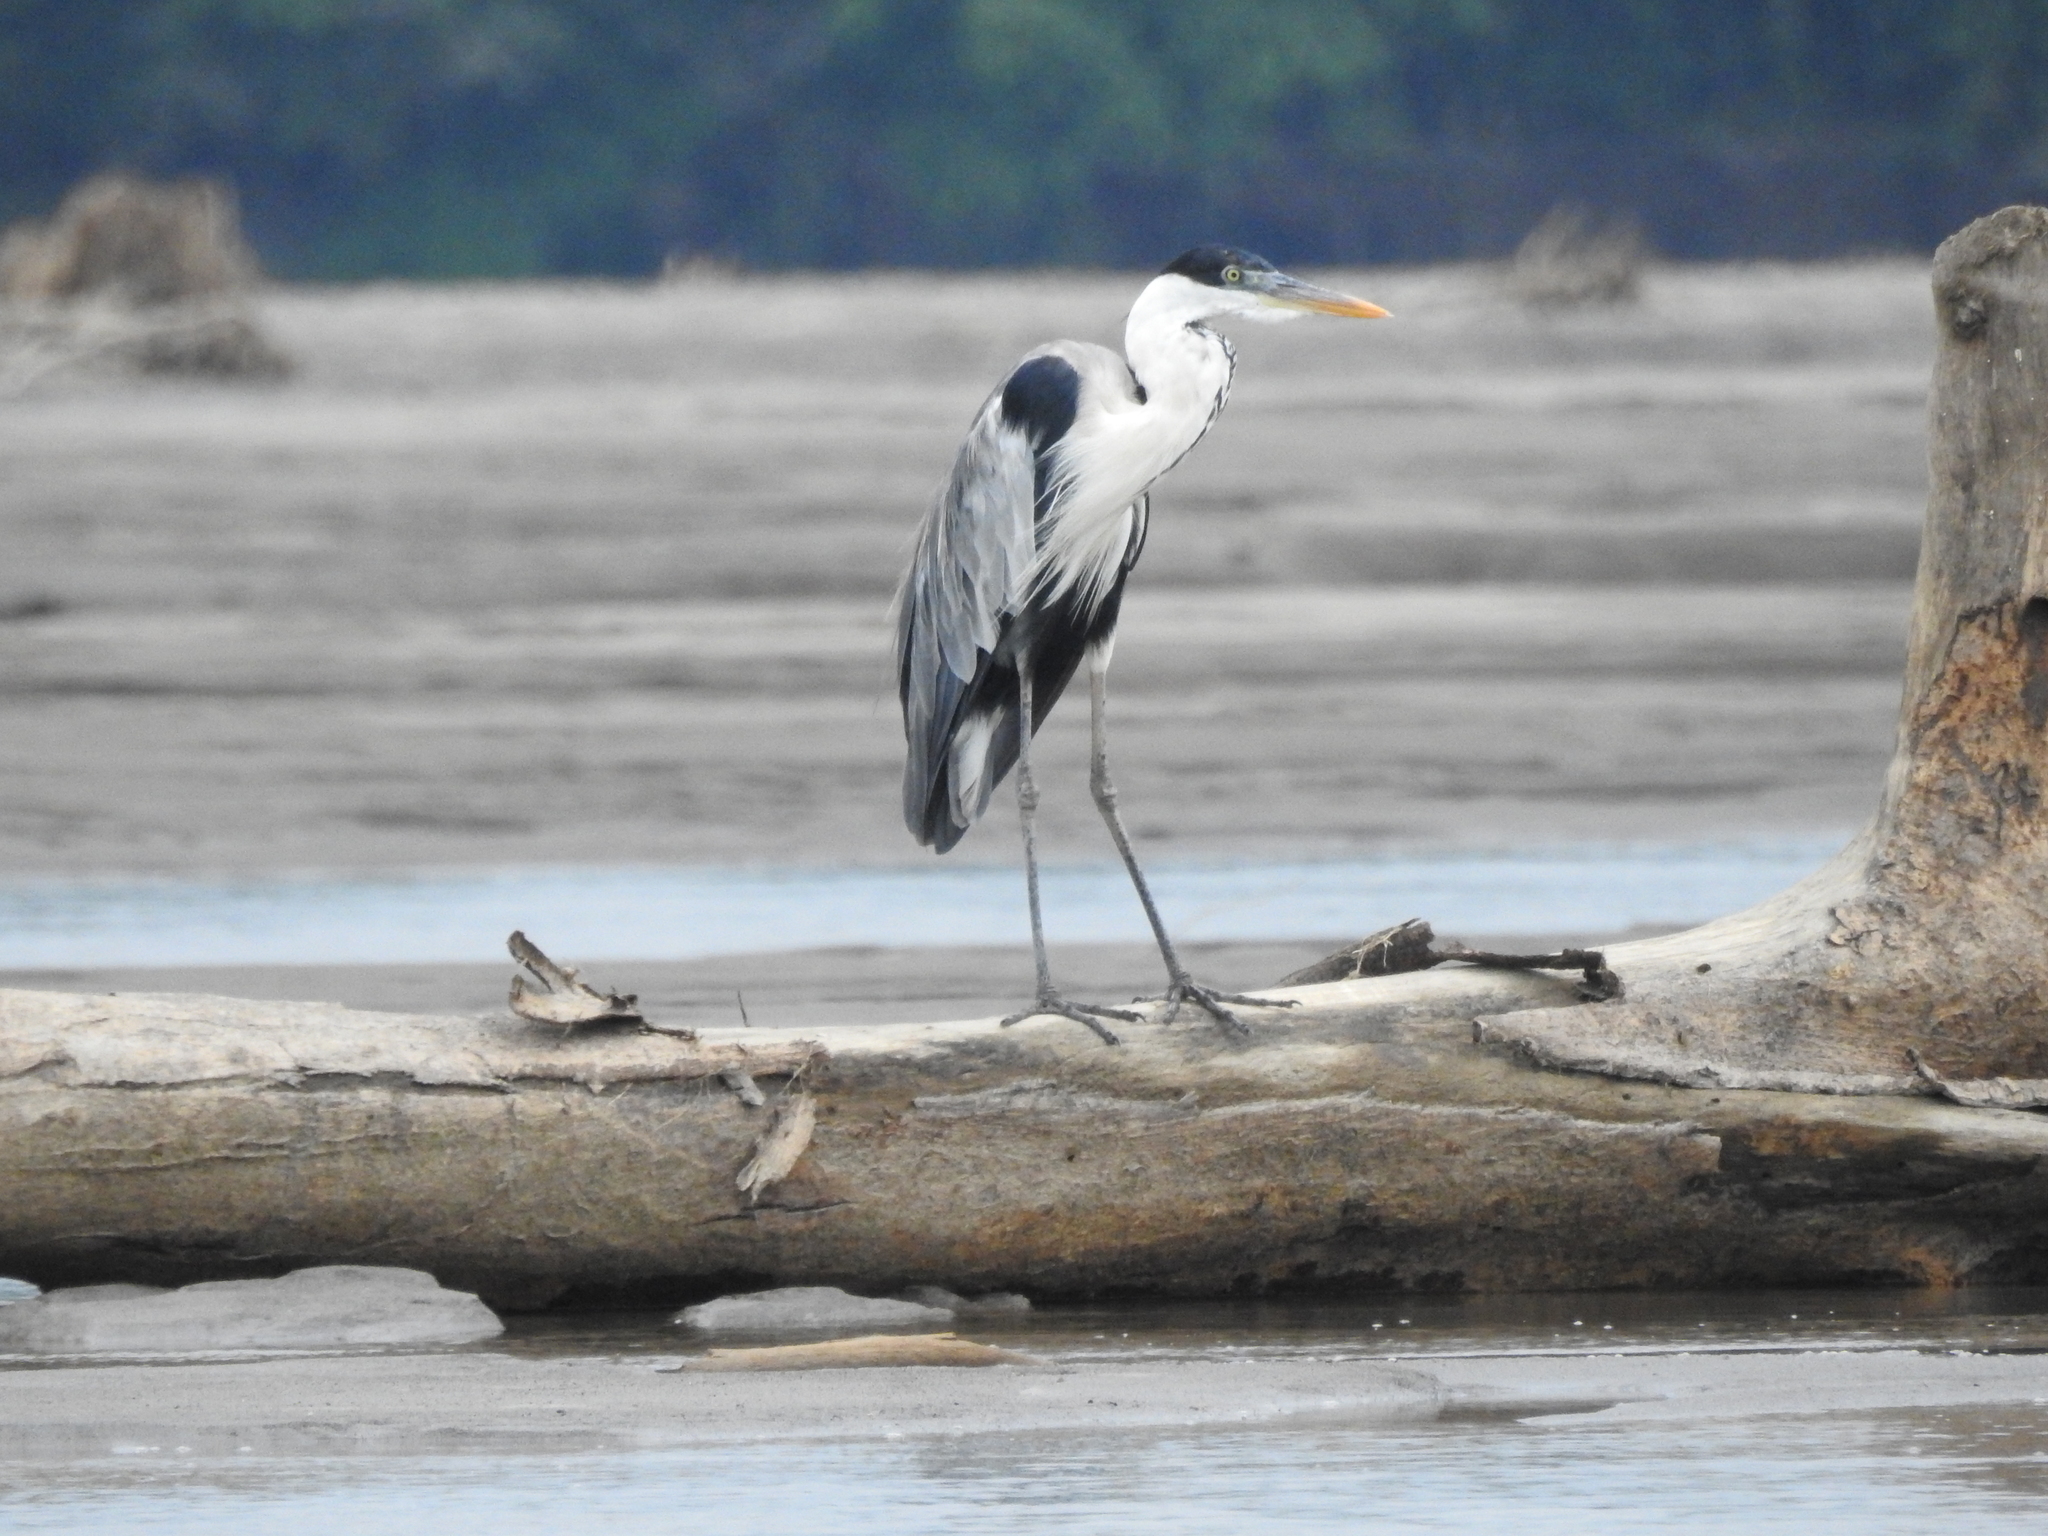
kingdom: Animalia
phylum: Chordata
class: Aves
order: Pelecaniformes
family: Ardeidae
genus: Ardea
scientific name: Ardea cocoi
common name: Cocoi heron
